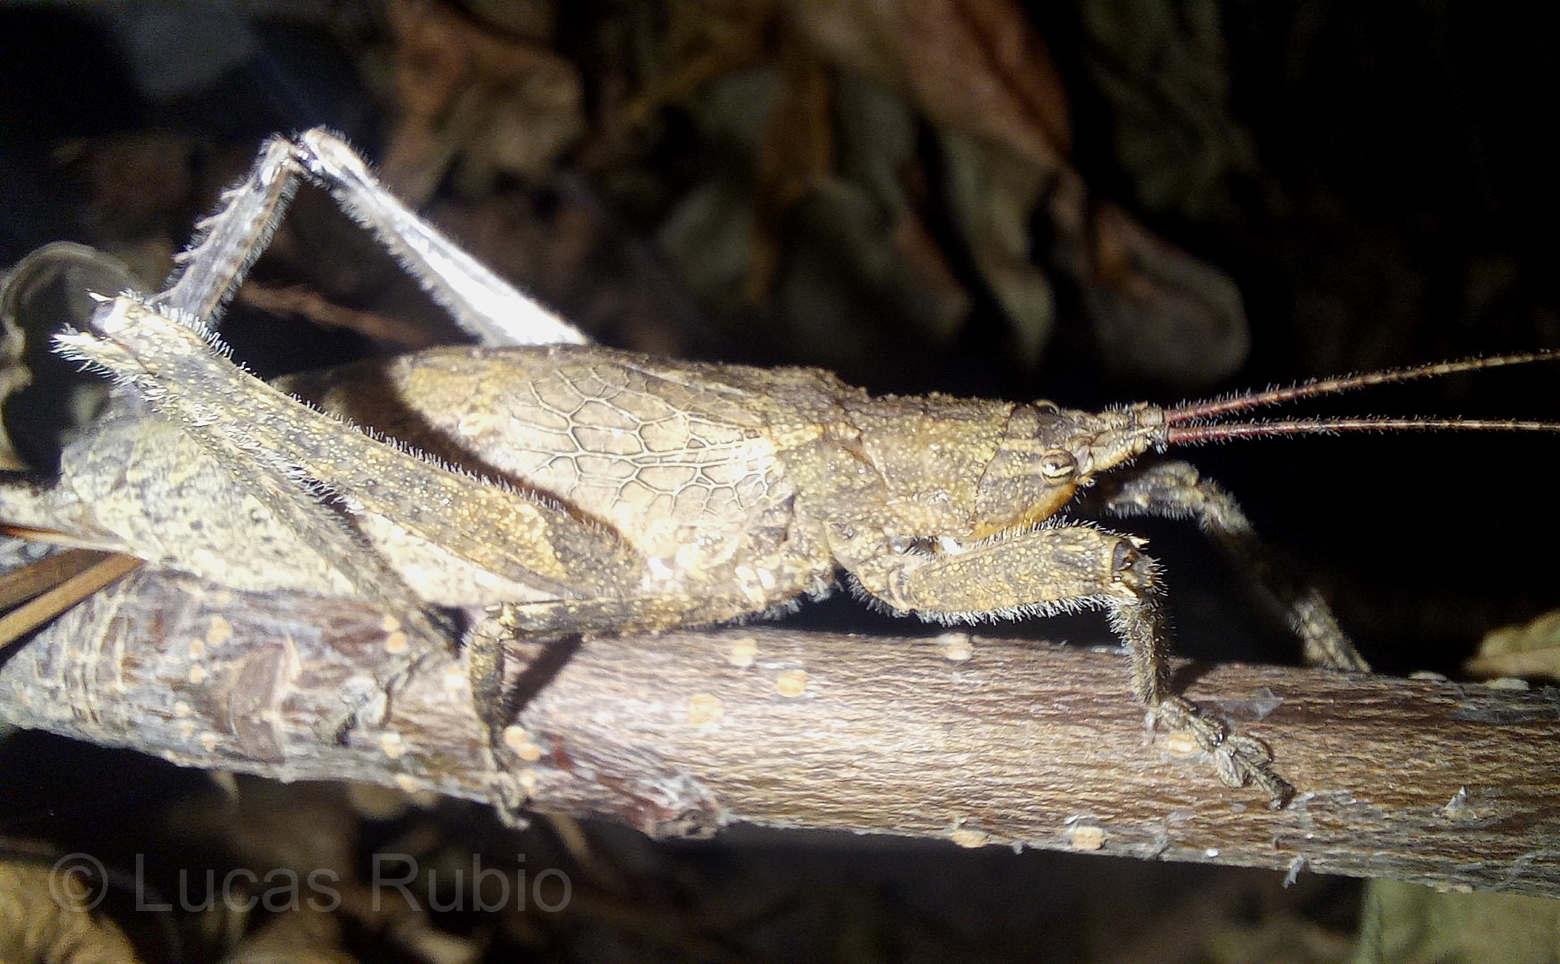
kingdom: Animalia
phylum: Arthropoda
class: Insecta
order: Orthoptera
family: Tettigoniidae
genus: Dasyscelus
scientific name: Dasyscelus normalis
